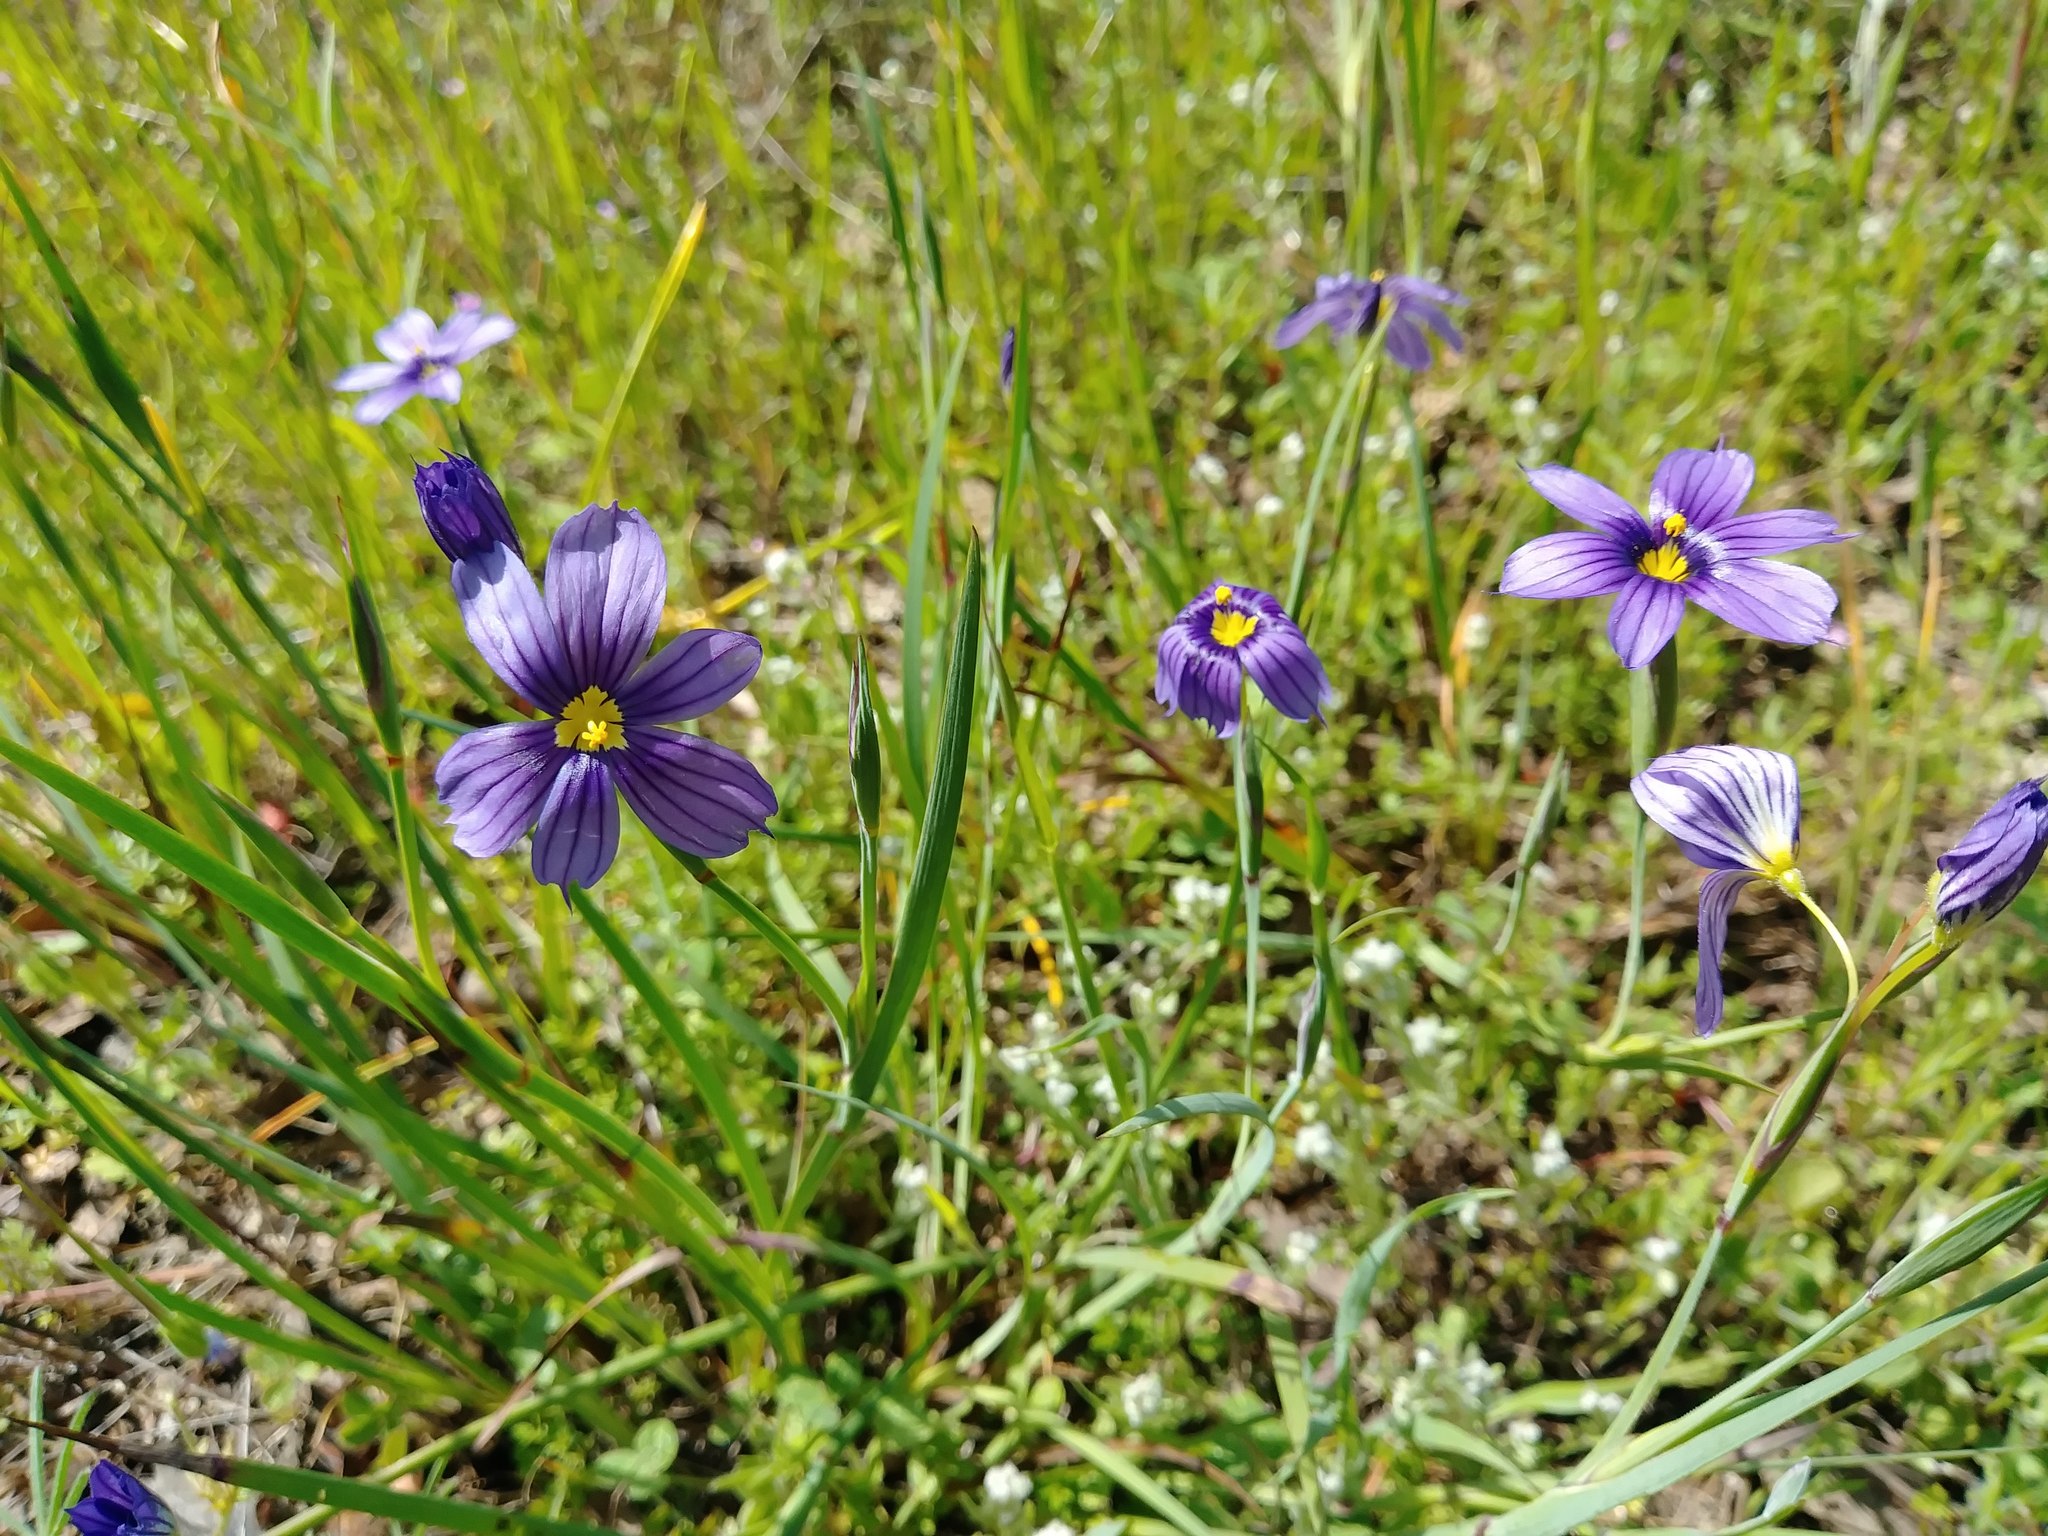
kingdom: Plantae
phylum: Tracheophyta
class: Liliopsida
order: Asparagales
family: Iridaceae
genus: Sisyrinchium
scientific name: Sisyrinchium bellum
